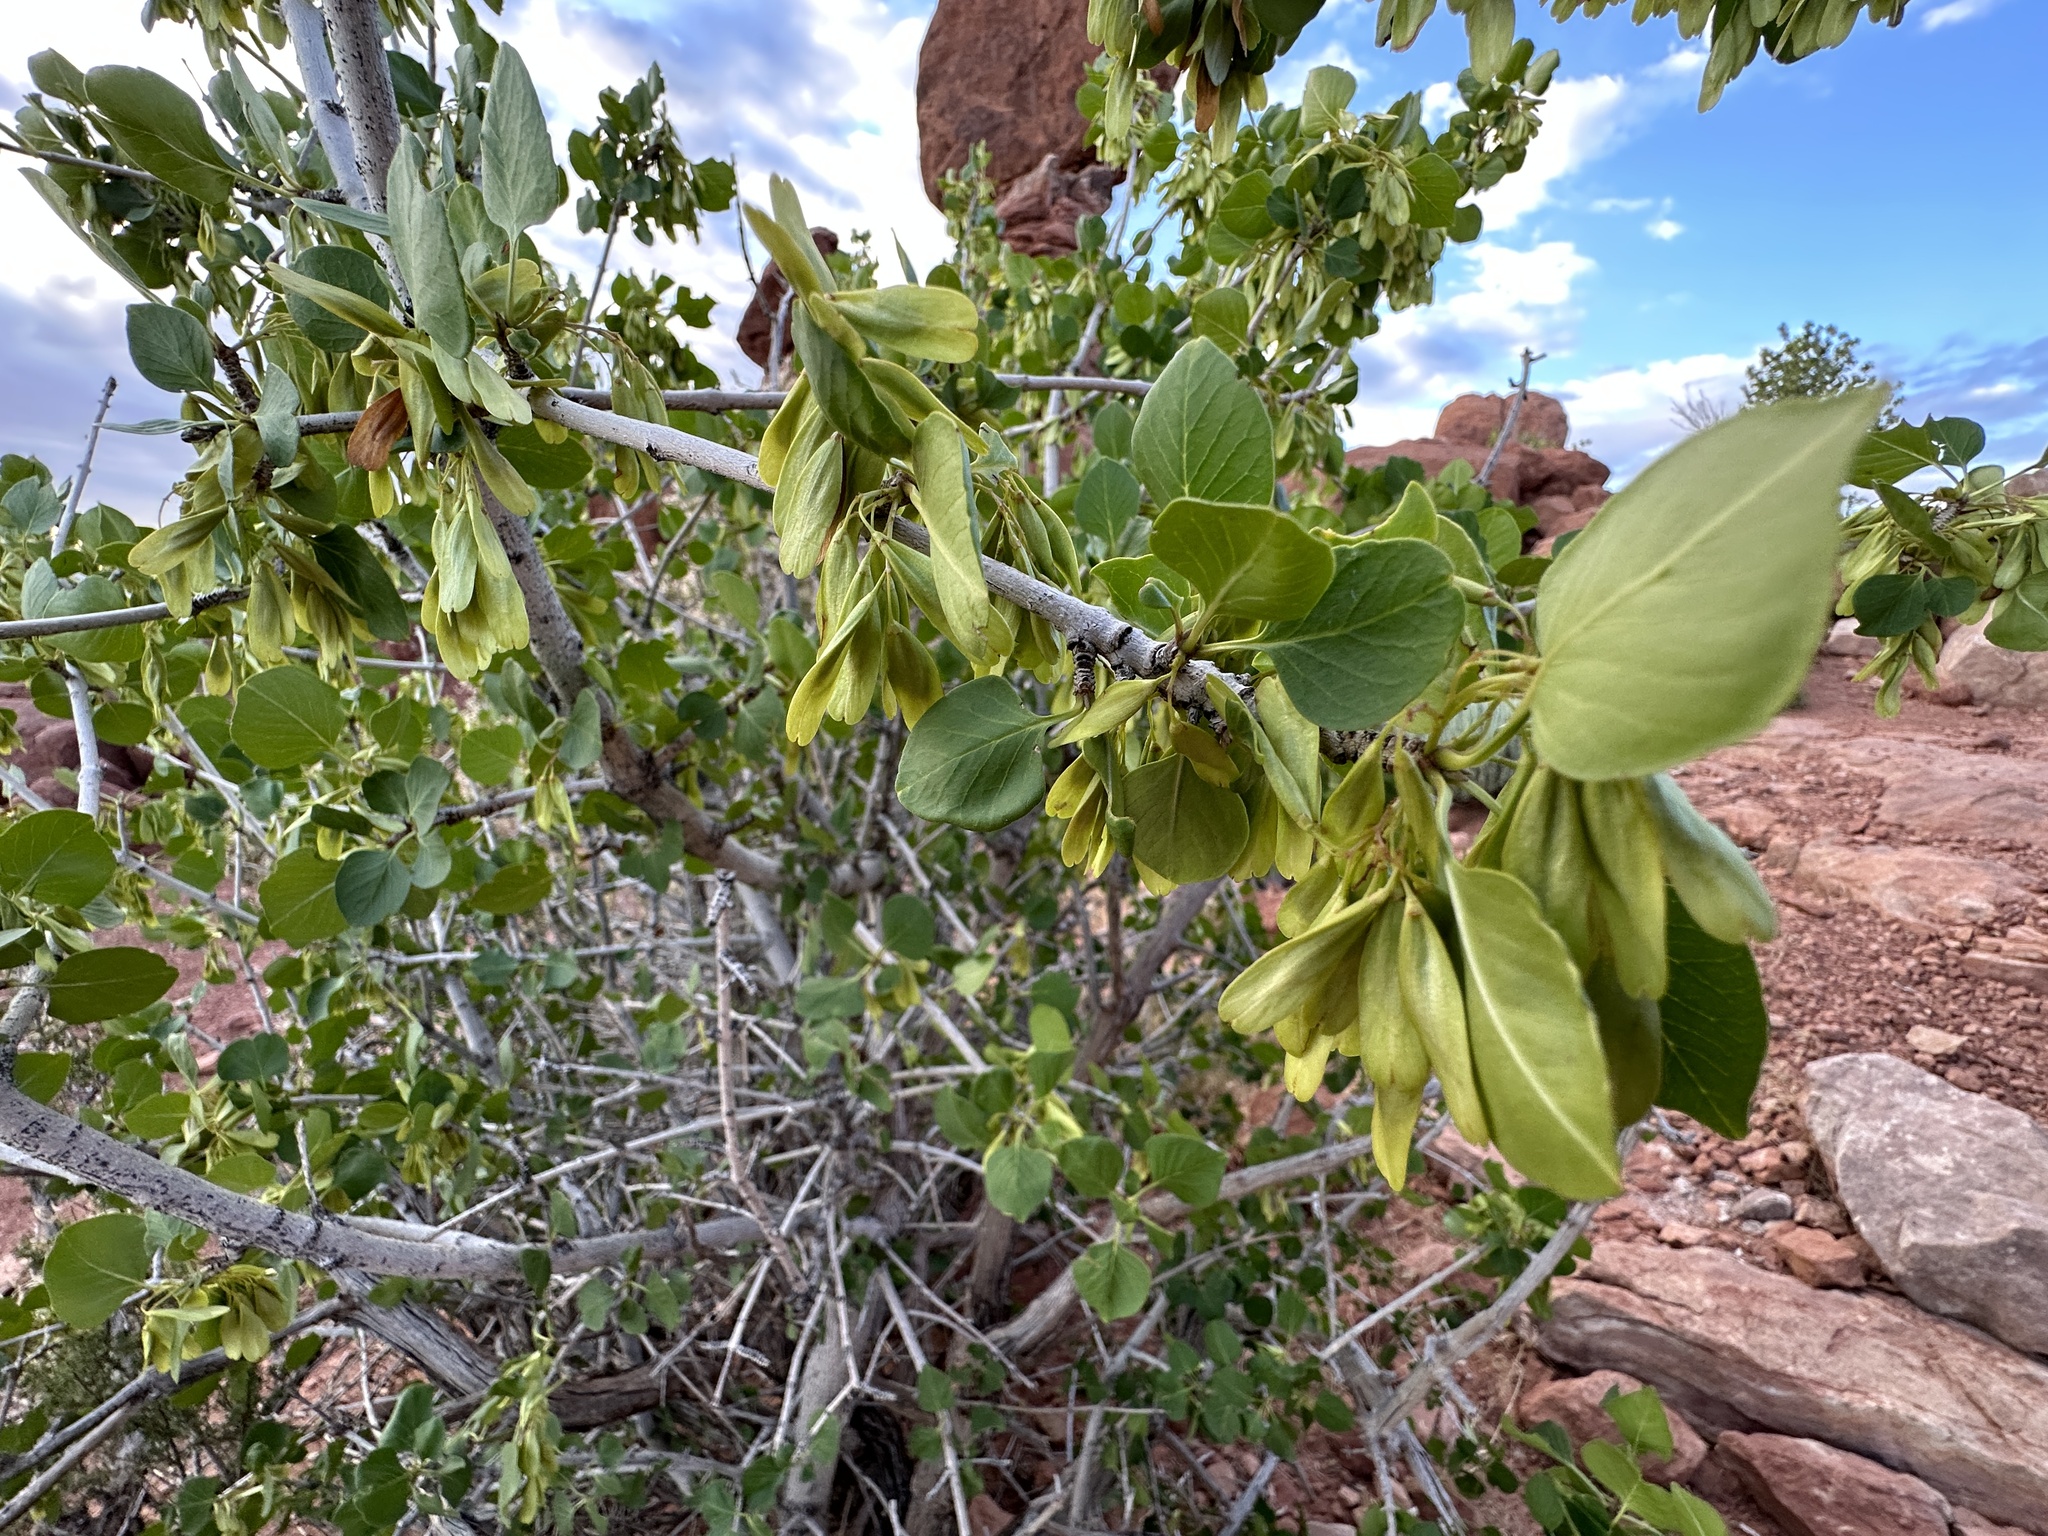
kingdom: Plantae
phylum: Tracheophyta
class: Magnoliopsida
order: Lamiales
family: Oleaceae
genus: Fraxinus
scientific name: Fraxinus anomala
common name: Utah ash
